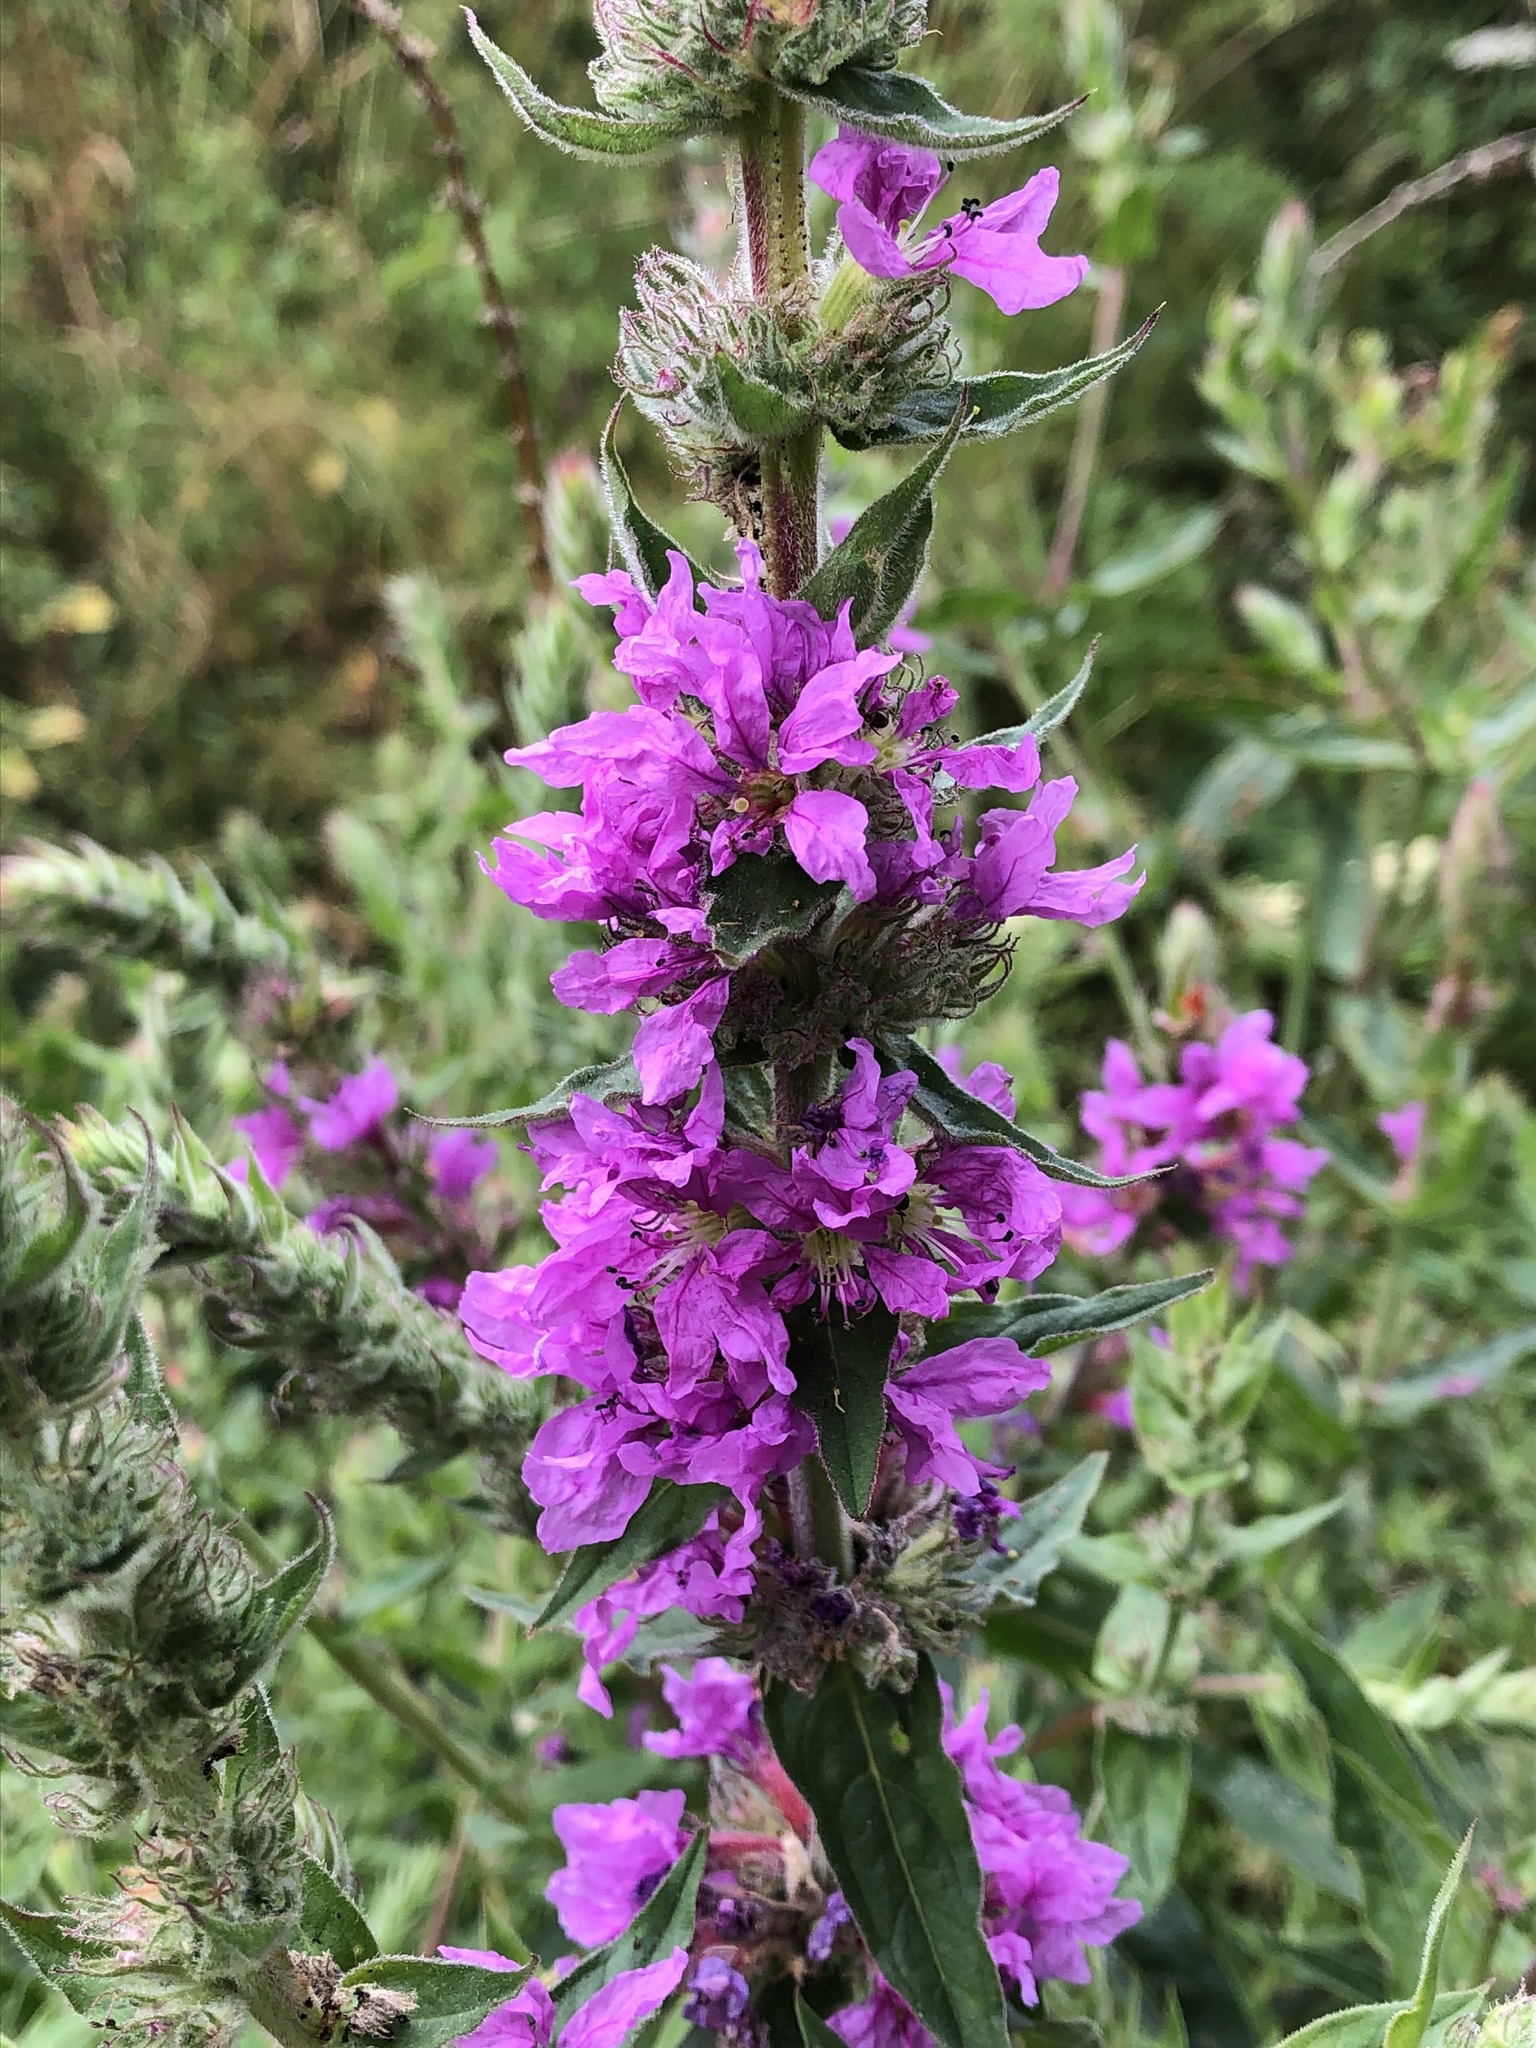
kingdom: Plantae
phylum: Tracheophyta
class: Magnoliopsida
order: Myrtales
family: Lythraceae
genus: Lythrum
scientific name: Lythrum salicaria
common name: Purple loosestrife
